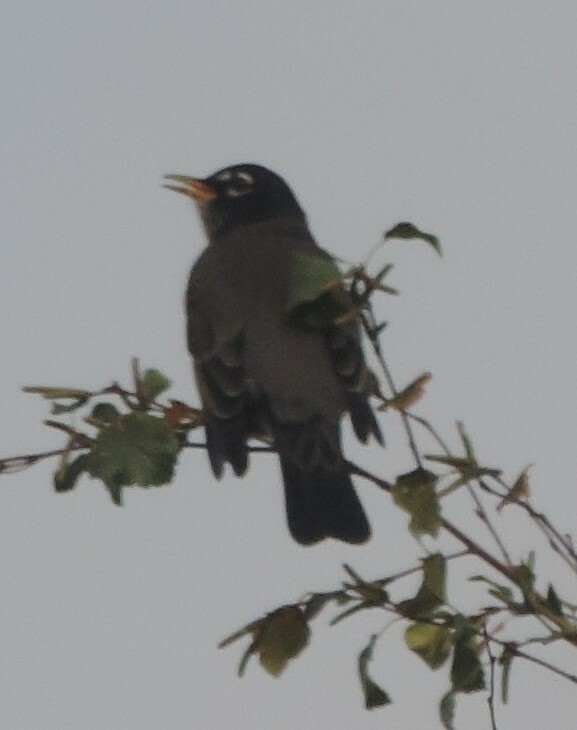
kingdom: Animalia
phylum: Chordata
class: Aves
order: Passeriformes
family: Turdidae
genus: Turdus
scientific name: Turdus migratorius
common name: American robin
